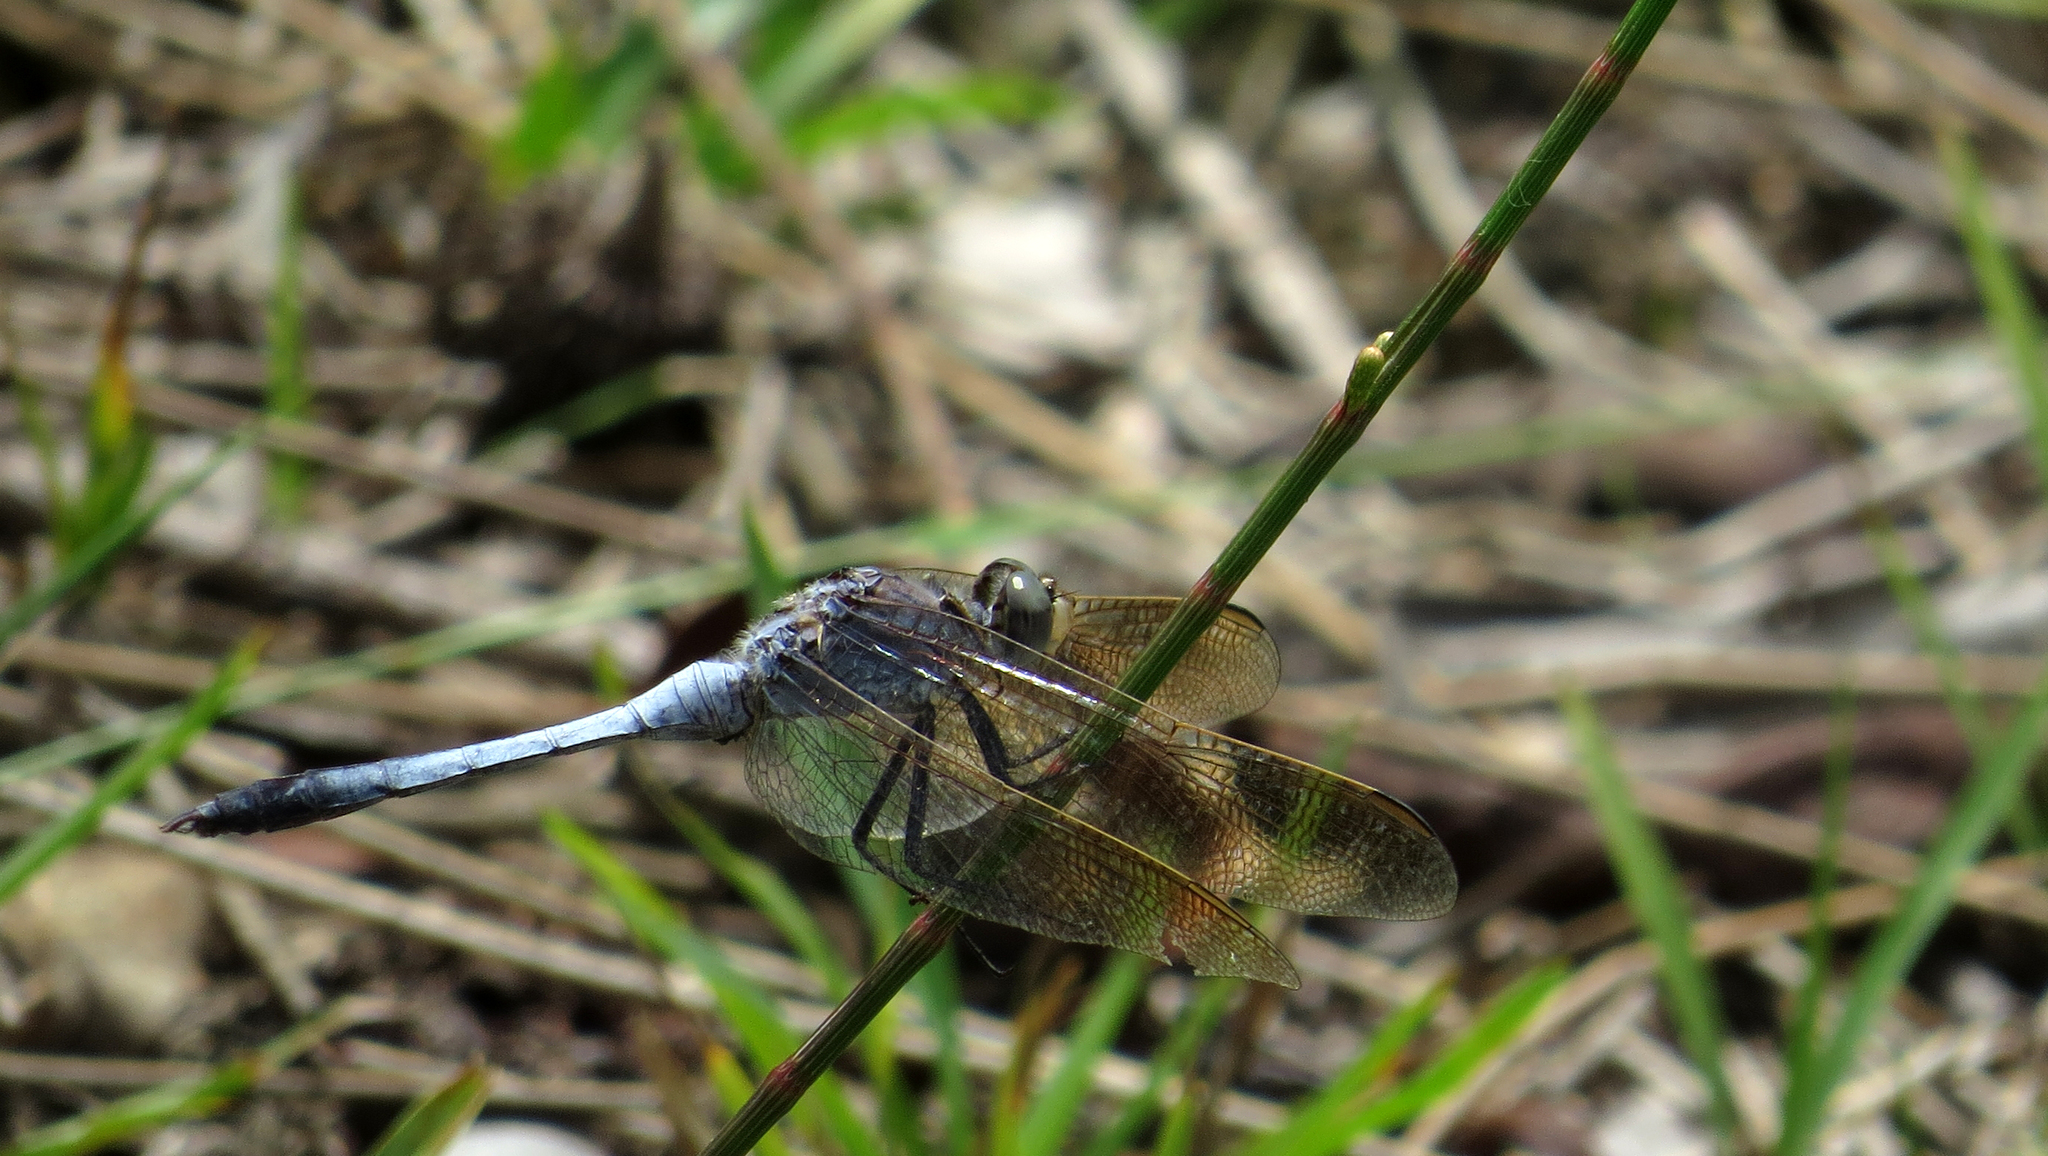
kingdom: Animalia
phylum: Arthropoda
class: Insecta
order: Odonata
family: Libellulidae
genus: Orthetrum
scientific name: Orthetrum caledonicum
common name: Blue skimmer
